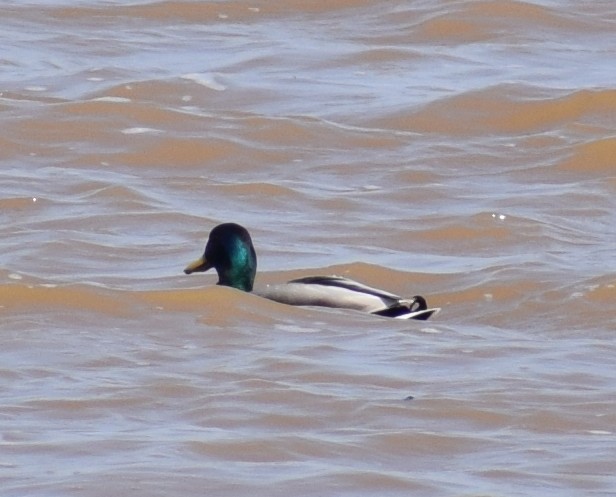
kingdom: Animalia
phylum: Chordata
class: Aves
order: Anseriformes
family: Anatidae
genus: Anas
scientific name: Anas platyrhynchos
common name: Mallard
